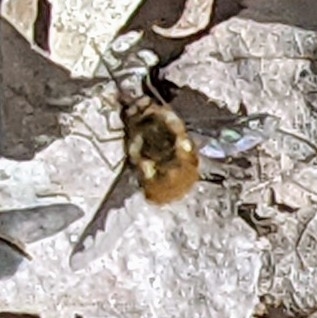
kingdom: Animalia
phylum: Arthropoda
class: Insecta
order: Diptera
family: Bombyliidae
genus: Bombylius
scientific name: Bombylius major
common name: Bee fly
